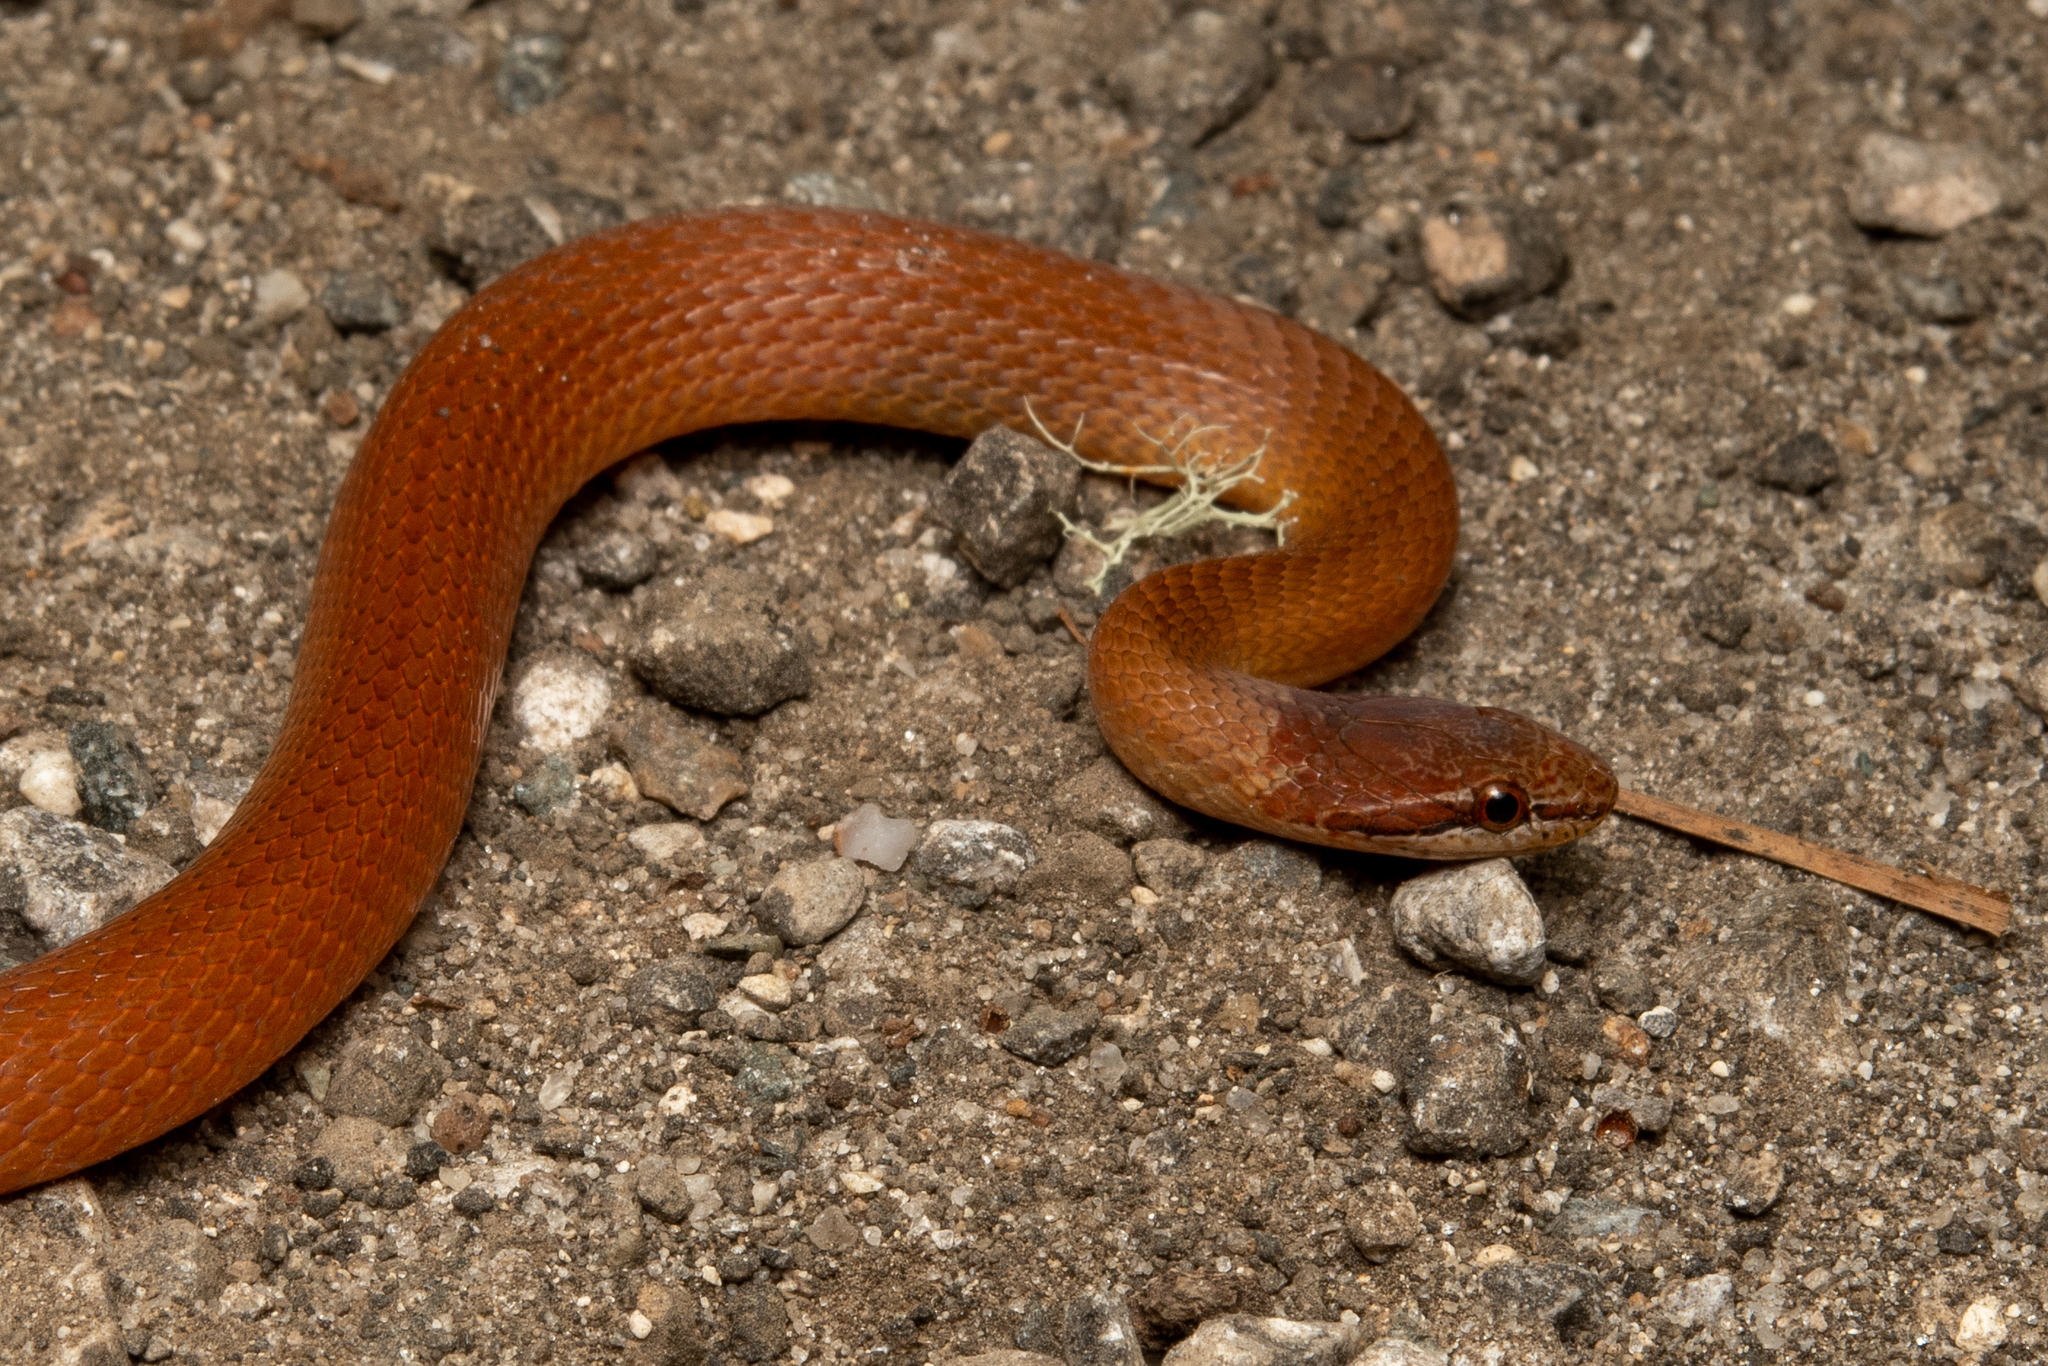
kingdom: Animalia
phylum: Chordata
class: Squamata
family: Colubridae
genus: Rhadinaea
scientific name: Rhadinaea flavilata
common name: Pine woods littersnake
